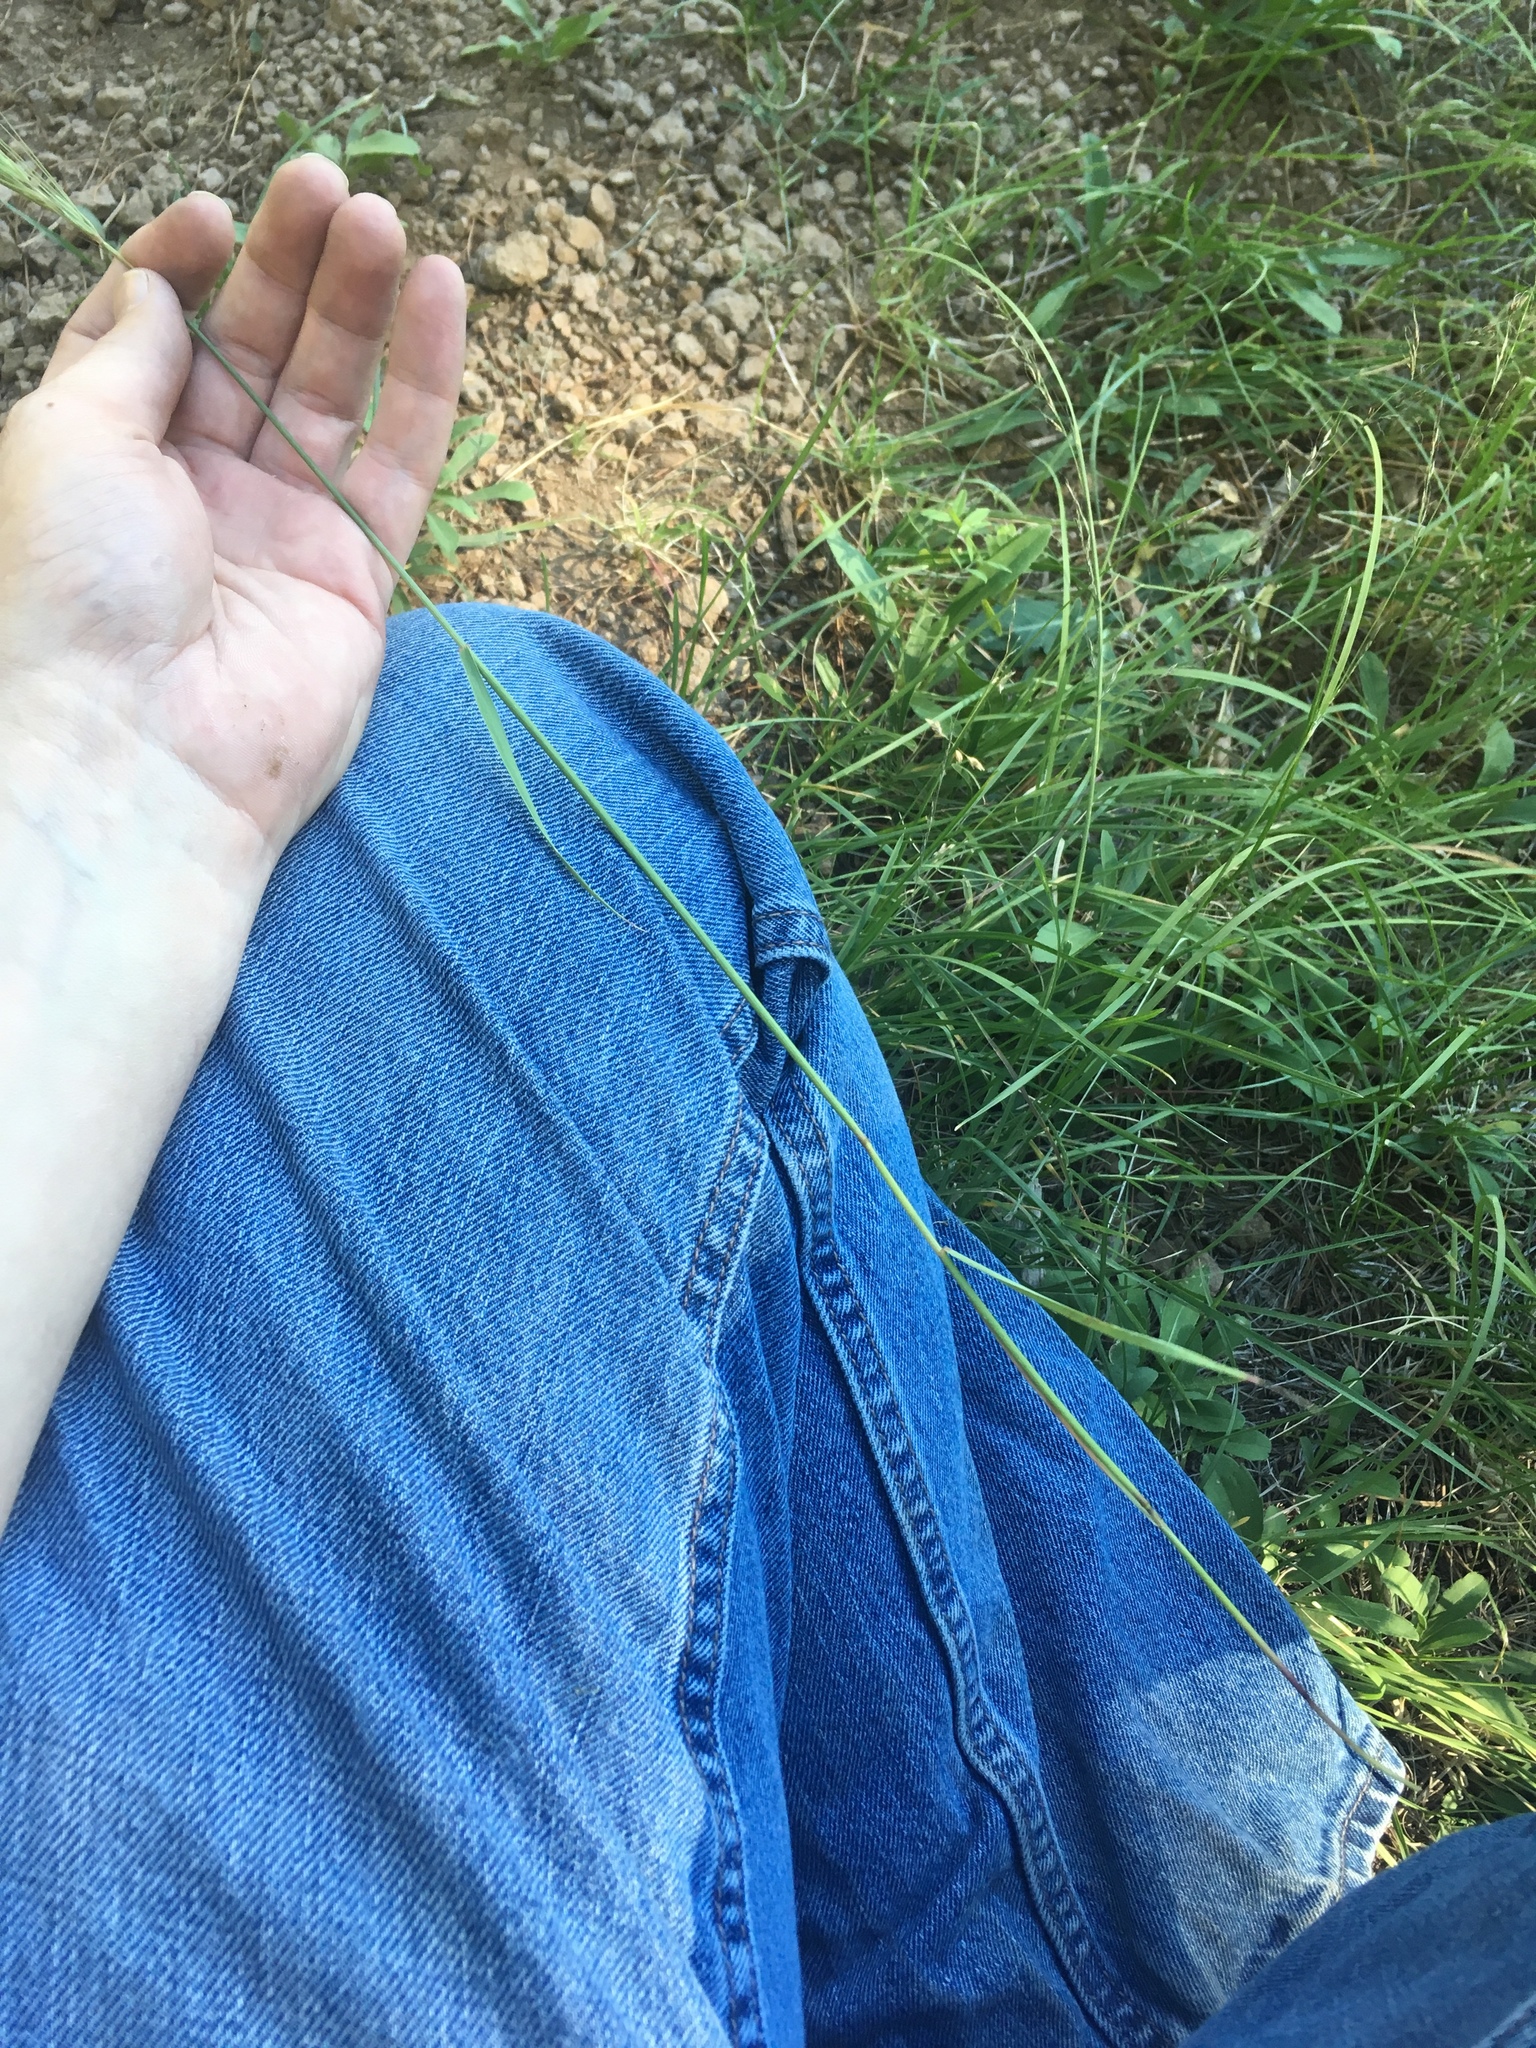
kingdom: Plantae
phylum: Tracheophyta
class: Liliopsida
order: Poales
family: Poaceae
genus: Elymus
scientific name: Elymus elymoides
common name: Bottlebrush squirreltail
